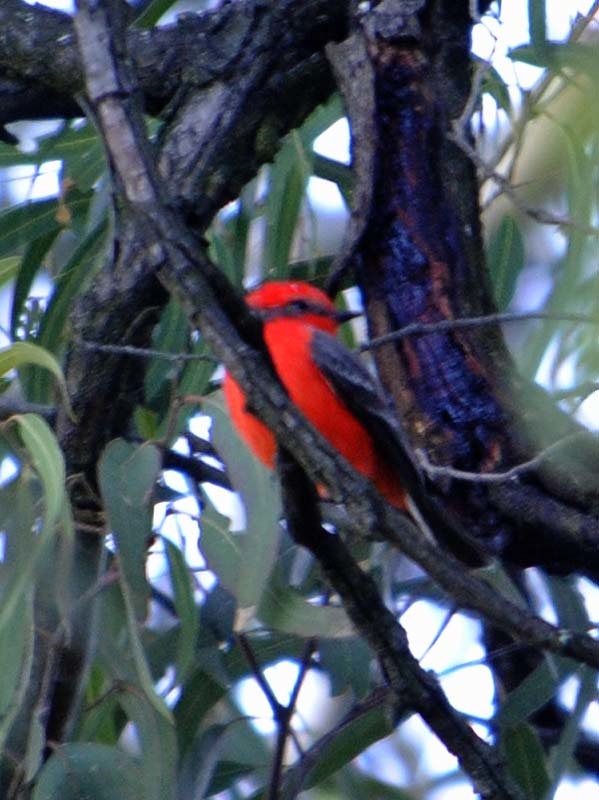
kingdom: Animalia
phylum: Chordata
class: Aves
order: Passeriformes
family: Tyrannidae
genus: Pyrocephalus
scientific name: Pyrocephalus rubinus
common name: Vermilion flycatcher
